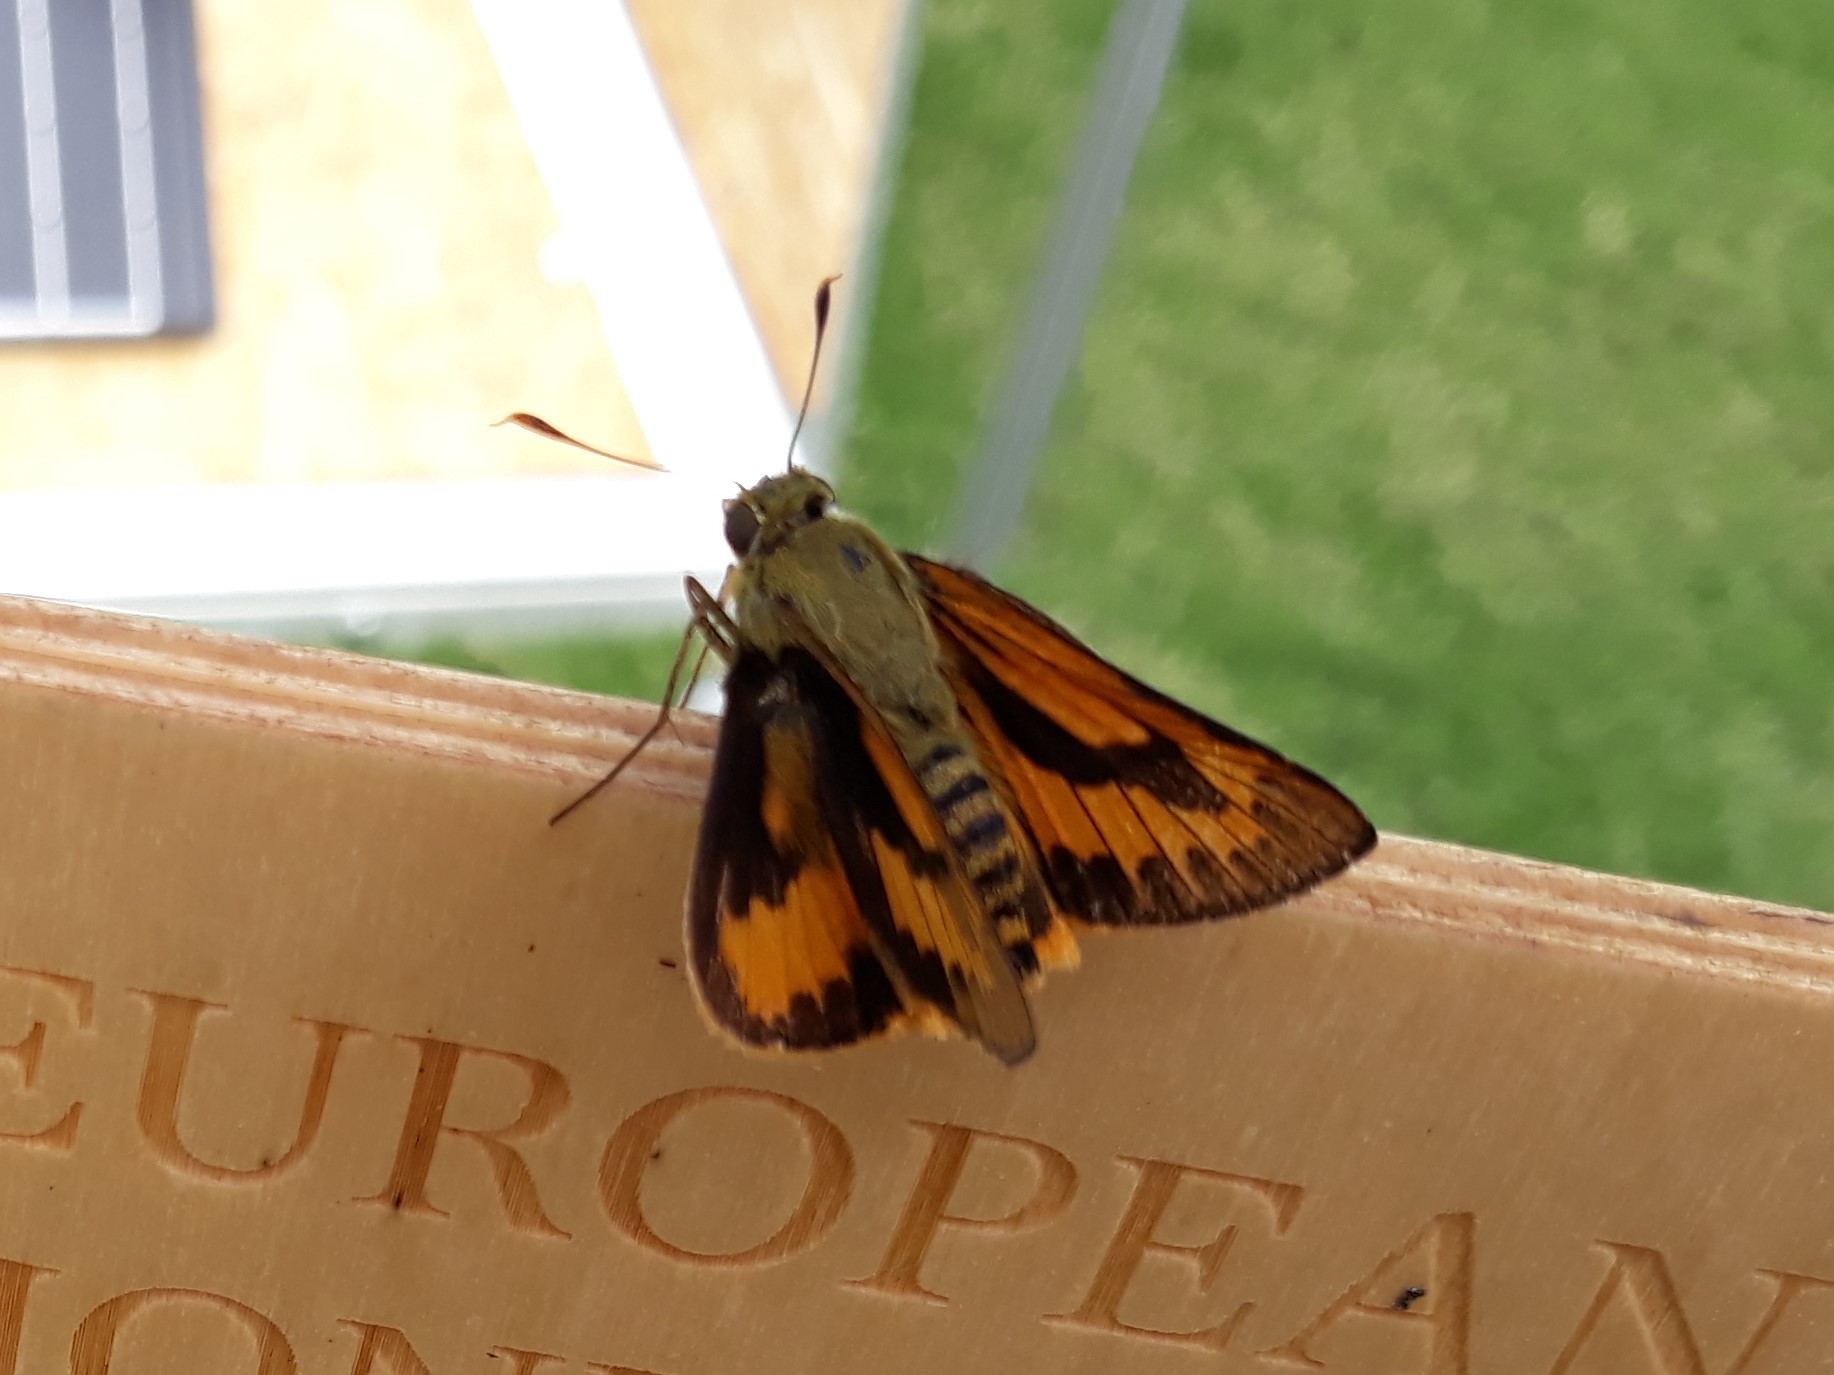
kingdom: Animalia
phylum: Arthropoda
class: Insecta
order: Lepidoptera
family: Hesperiidae
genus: Cephrenes
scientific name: Cephrenes trichopepla
